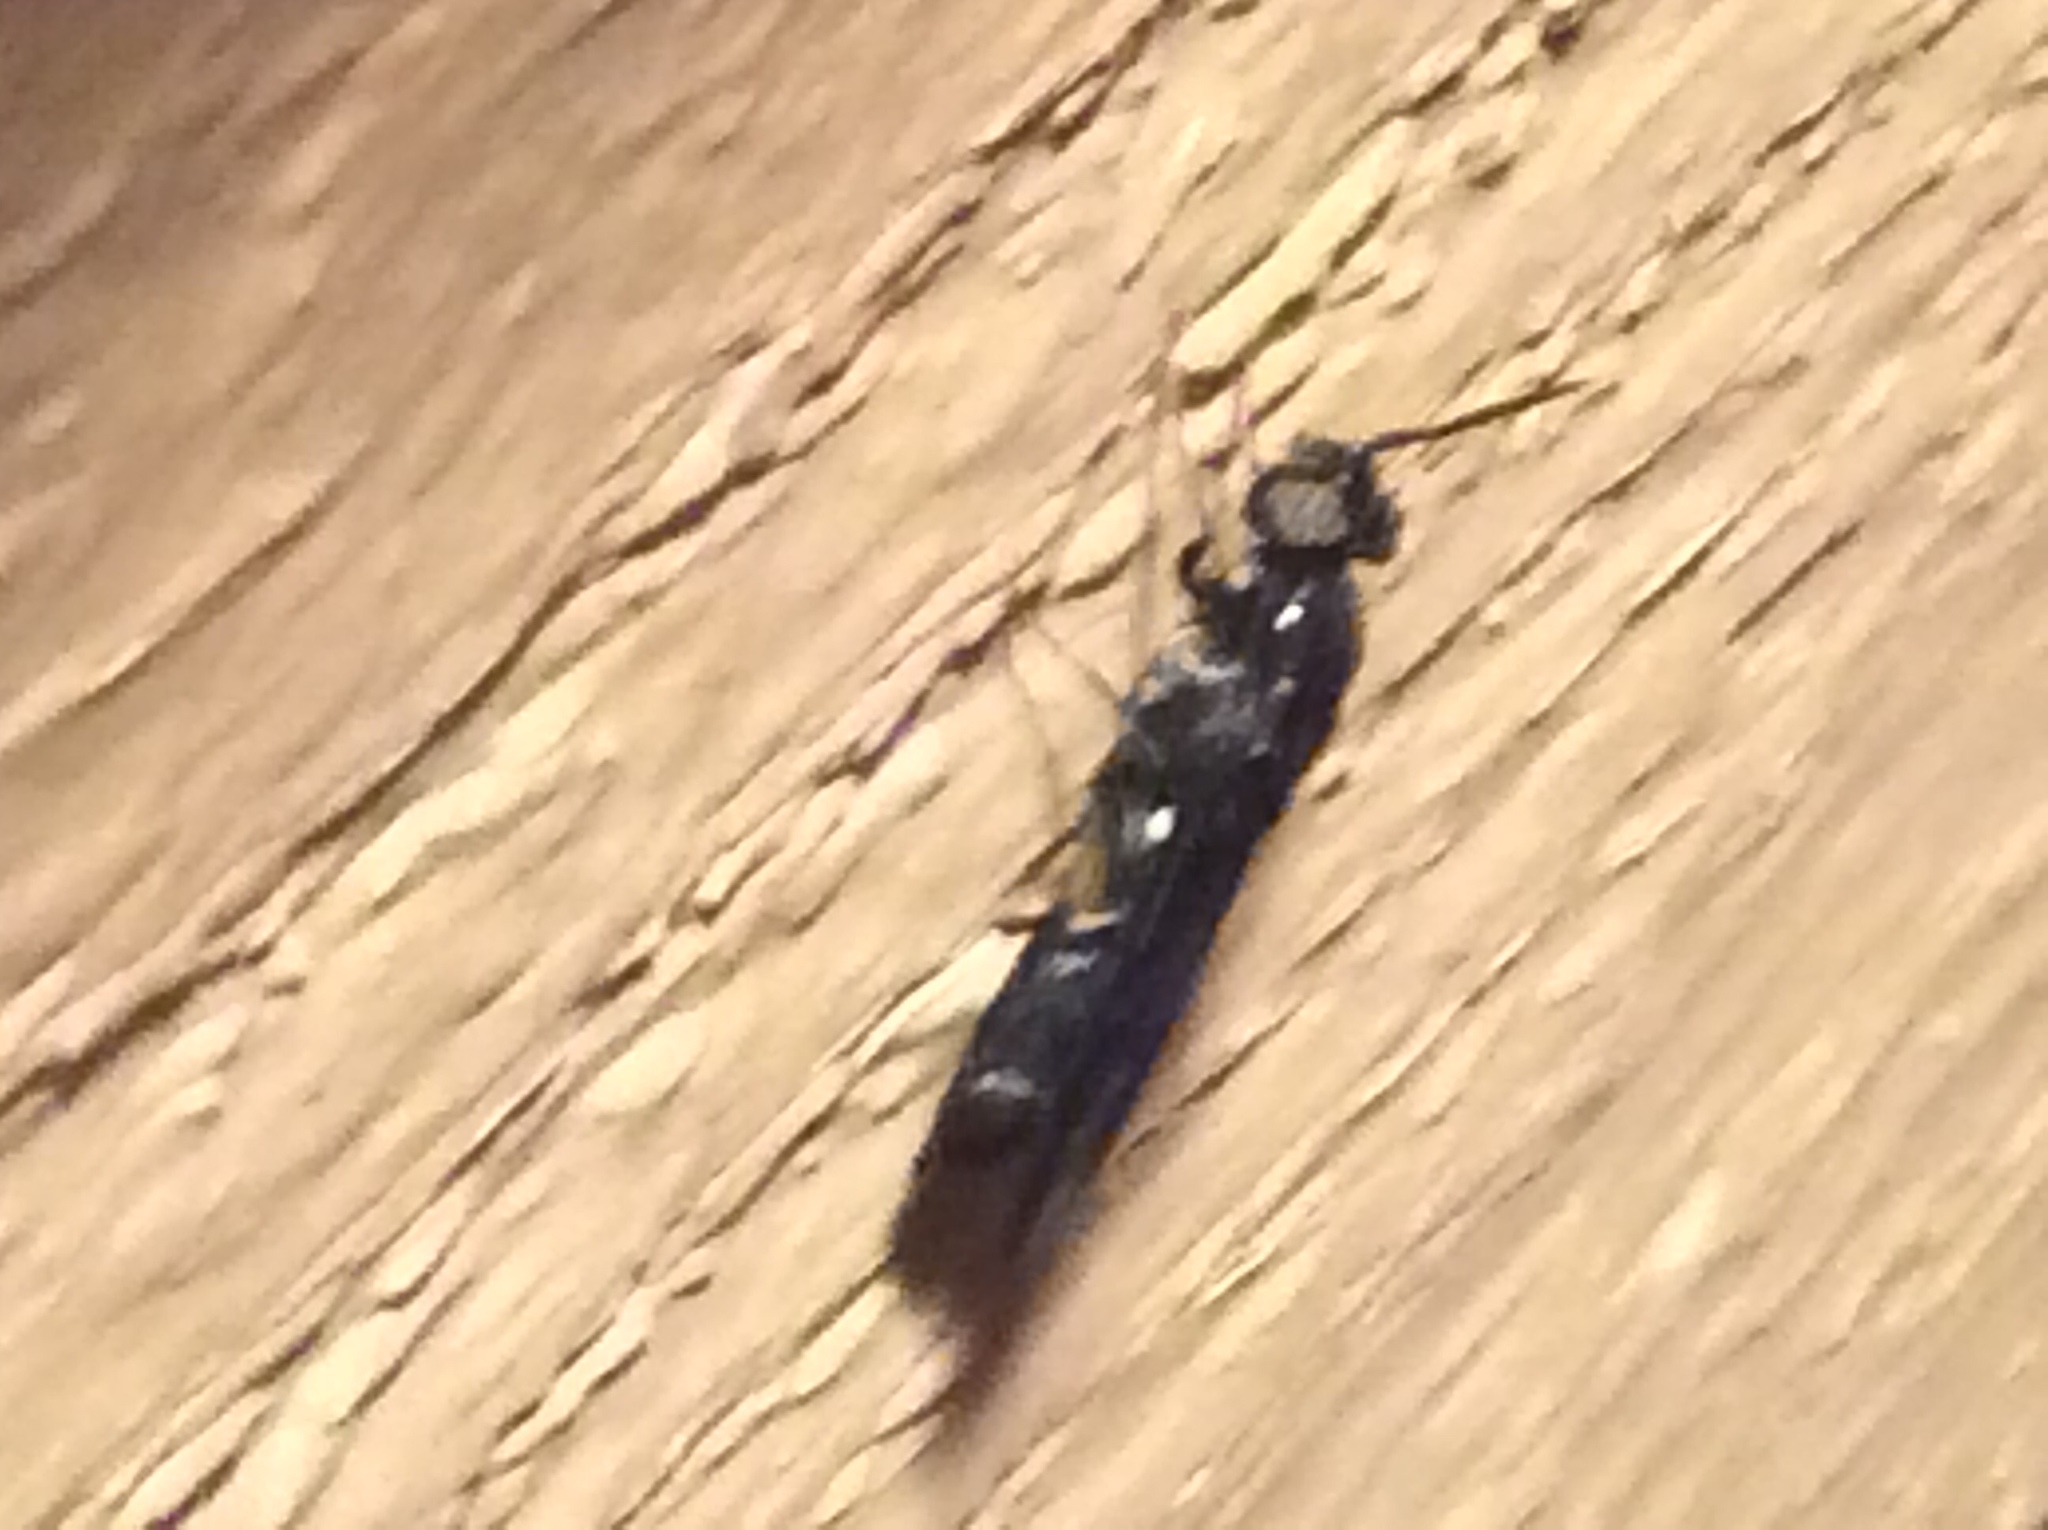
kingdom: Animalia
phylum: Arthropoda
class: Insecta
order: Diptera
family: Stratiomyidae
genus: Hermetia
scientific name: Hermetia illucens
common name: Black soldier fly
